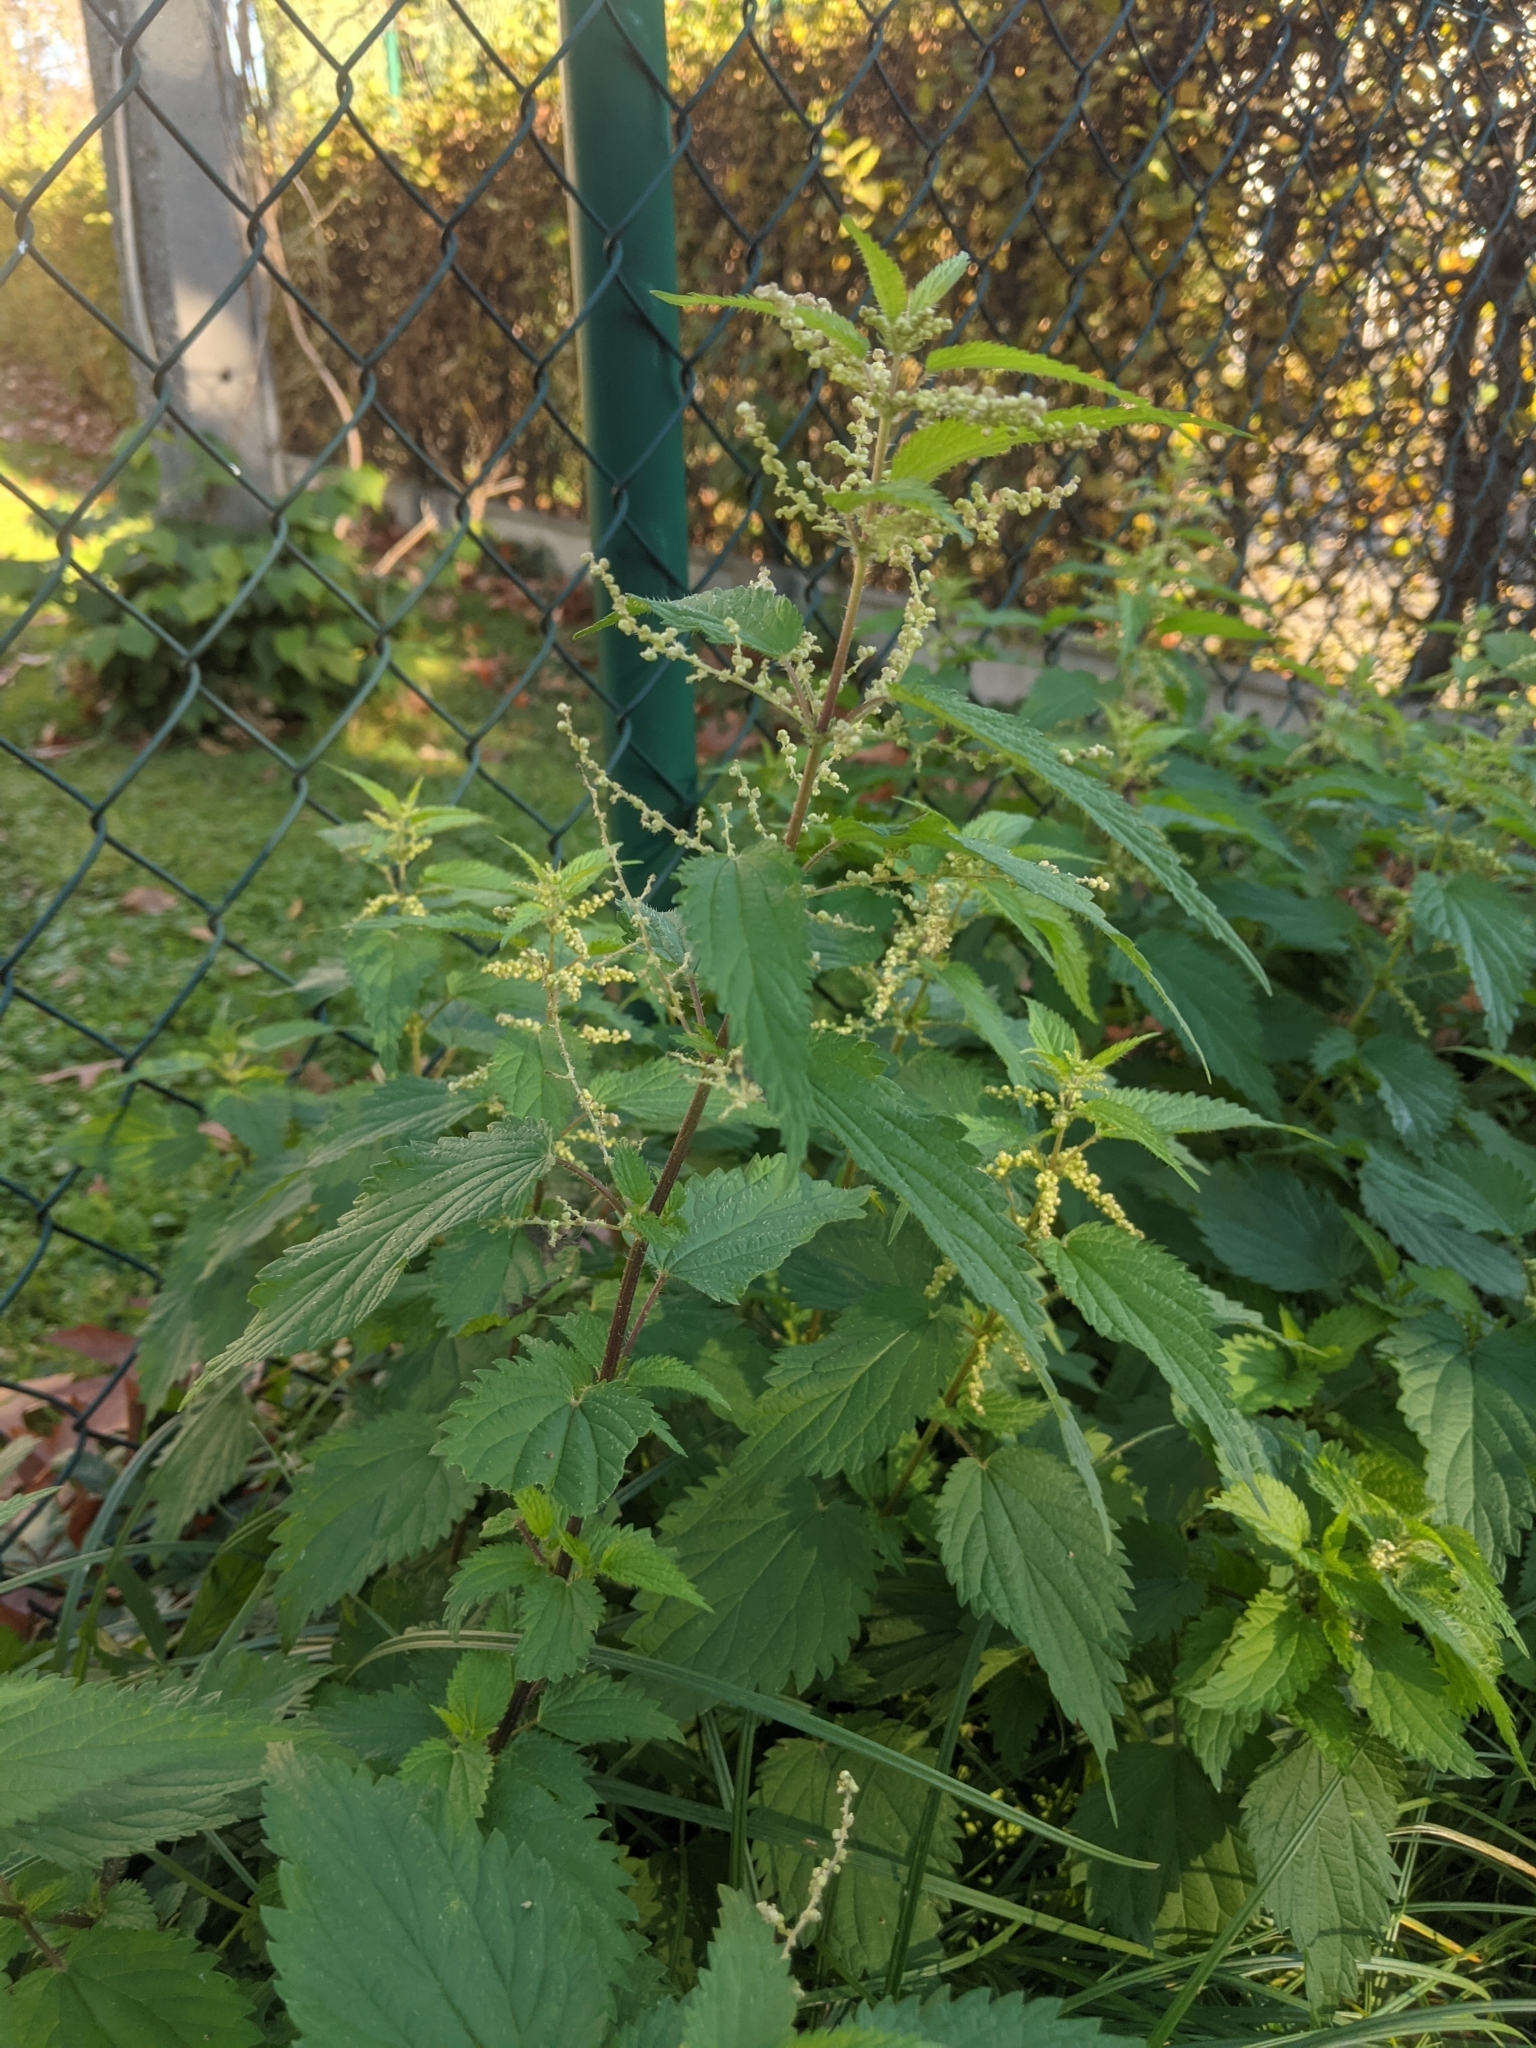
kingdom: Plantae
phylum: Tracheophyta
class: Magnoliopsida
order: Rosales
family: Urticaceae
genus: Urtica
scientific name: Urtica dioica
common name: Common nettle
